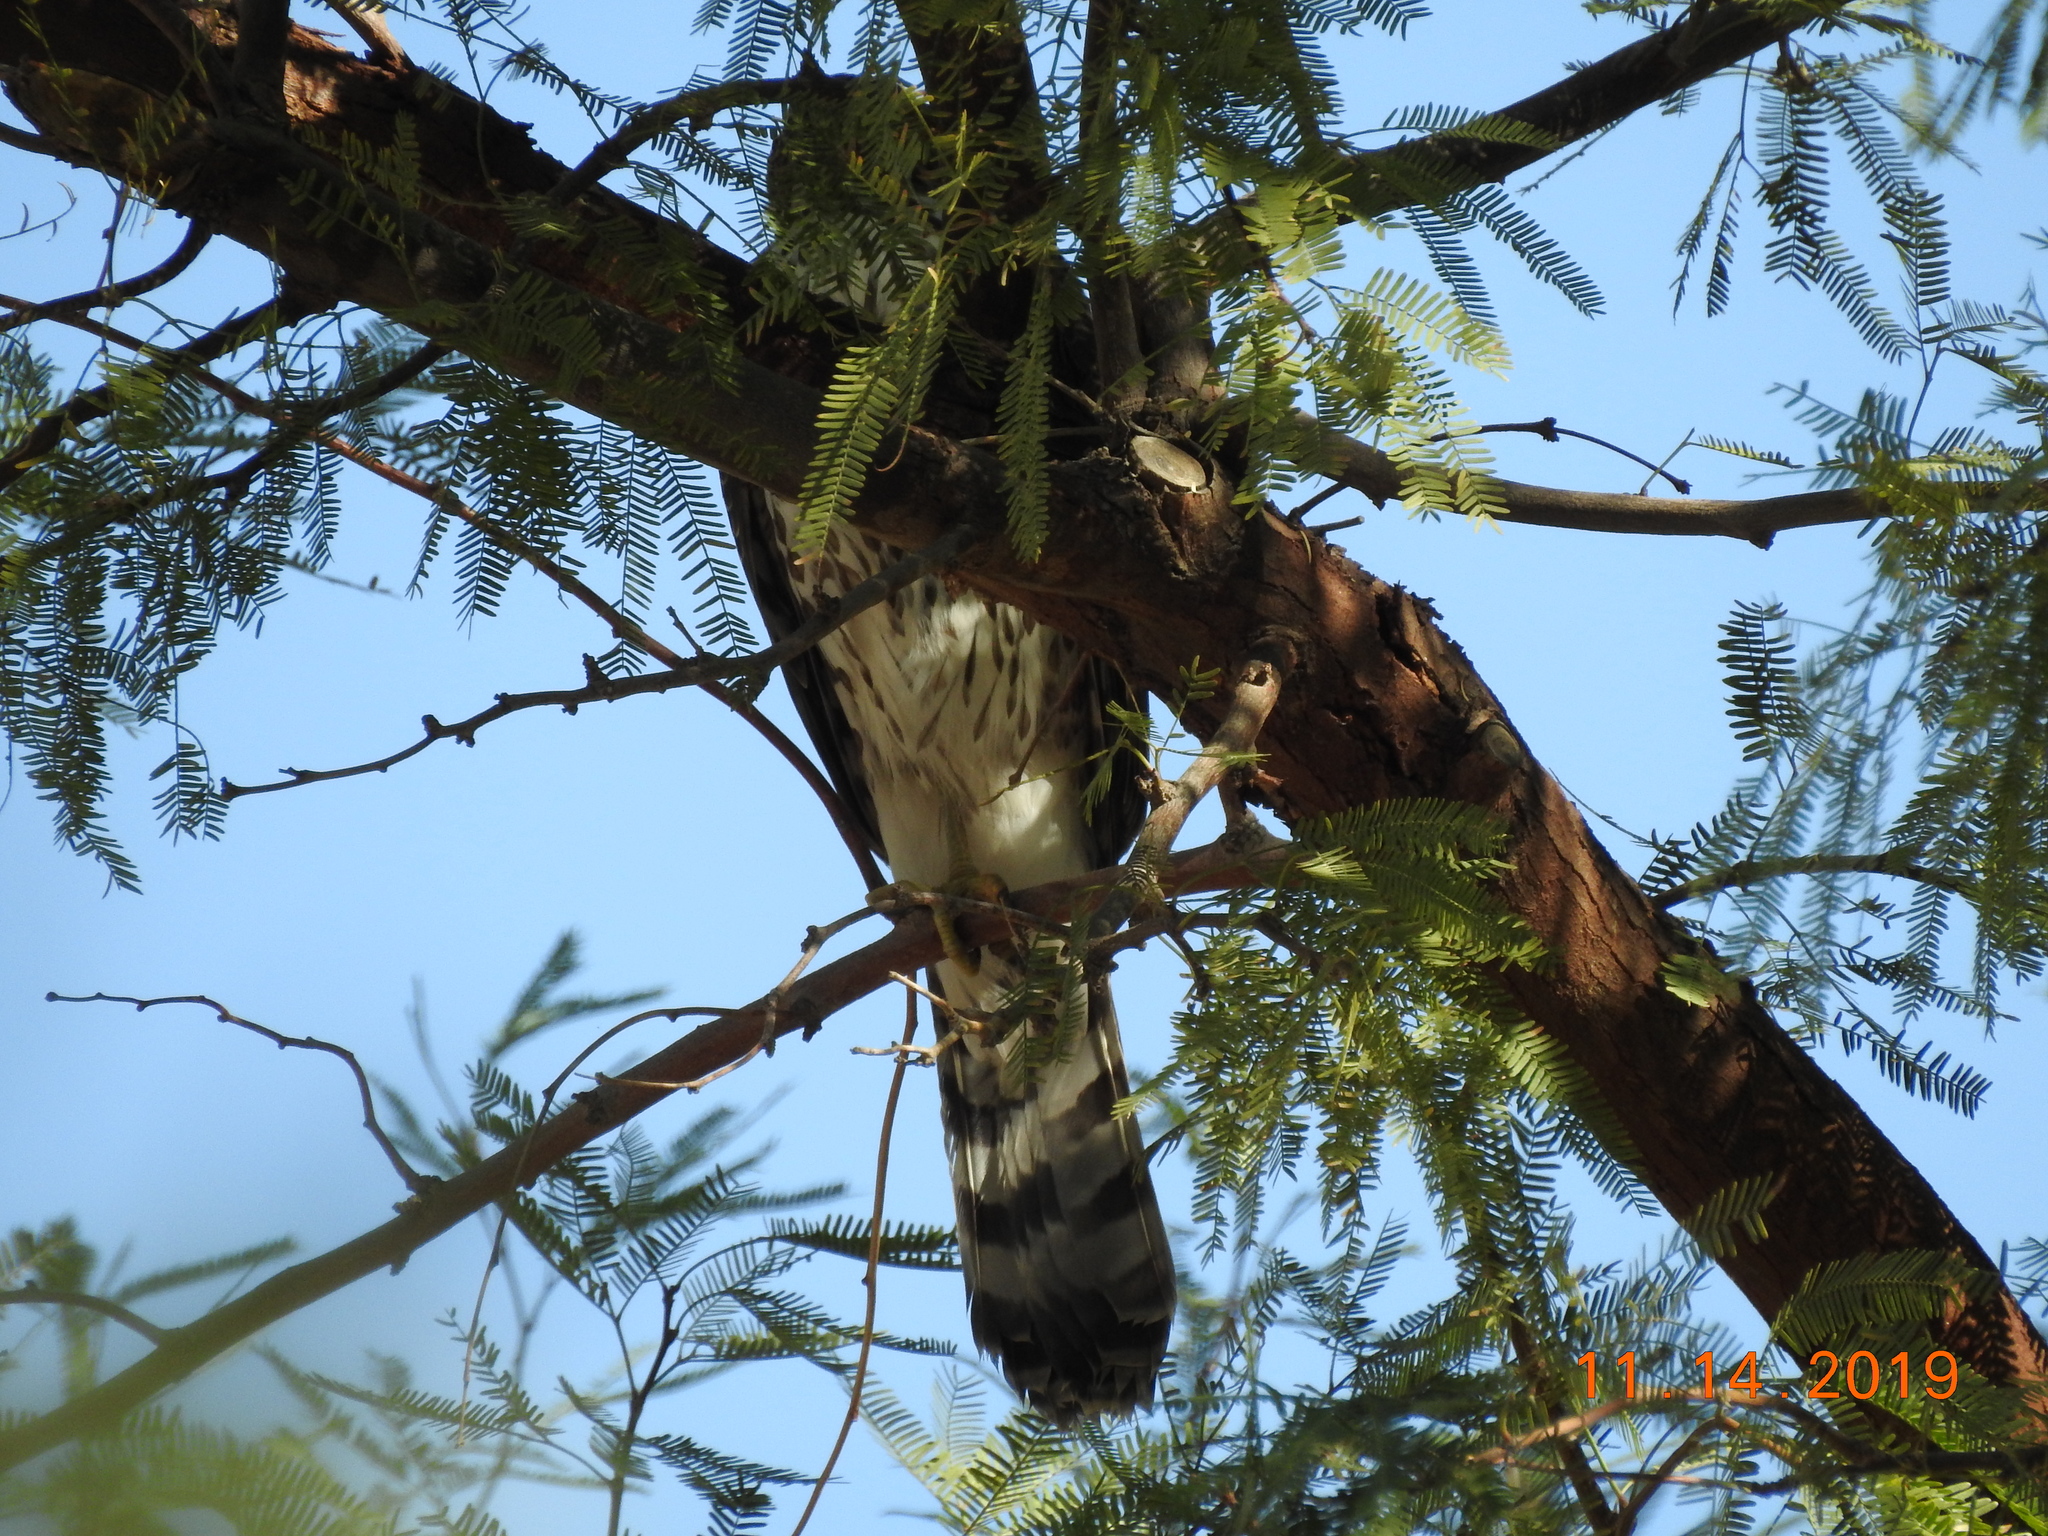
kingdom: Animalia
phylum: Chordata
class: Aves
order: Accipitriformes
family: Accipitridae
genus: Accipiter
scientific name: Accipiter cooperii
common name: Cooper's hawk
